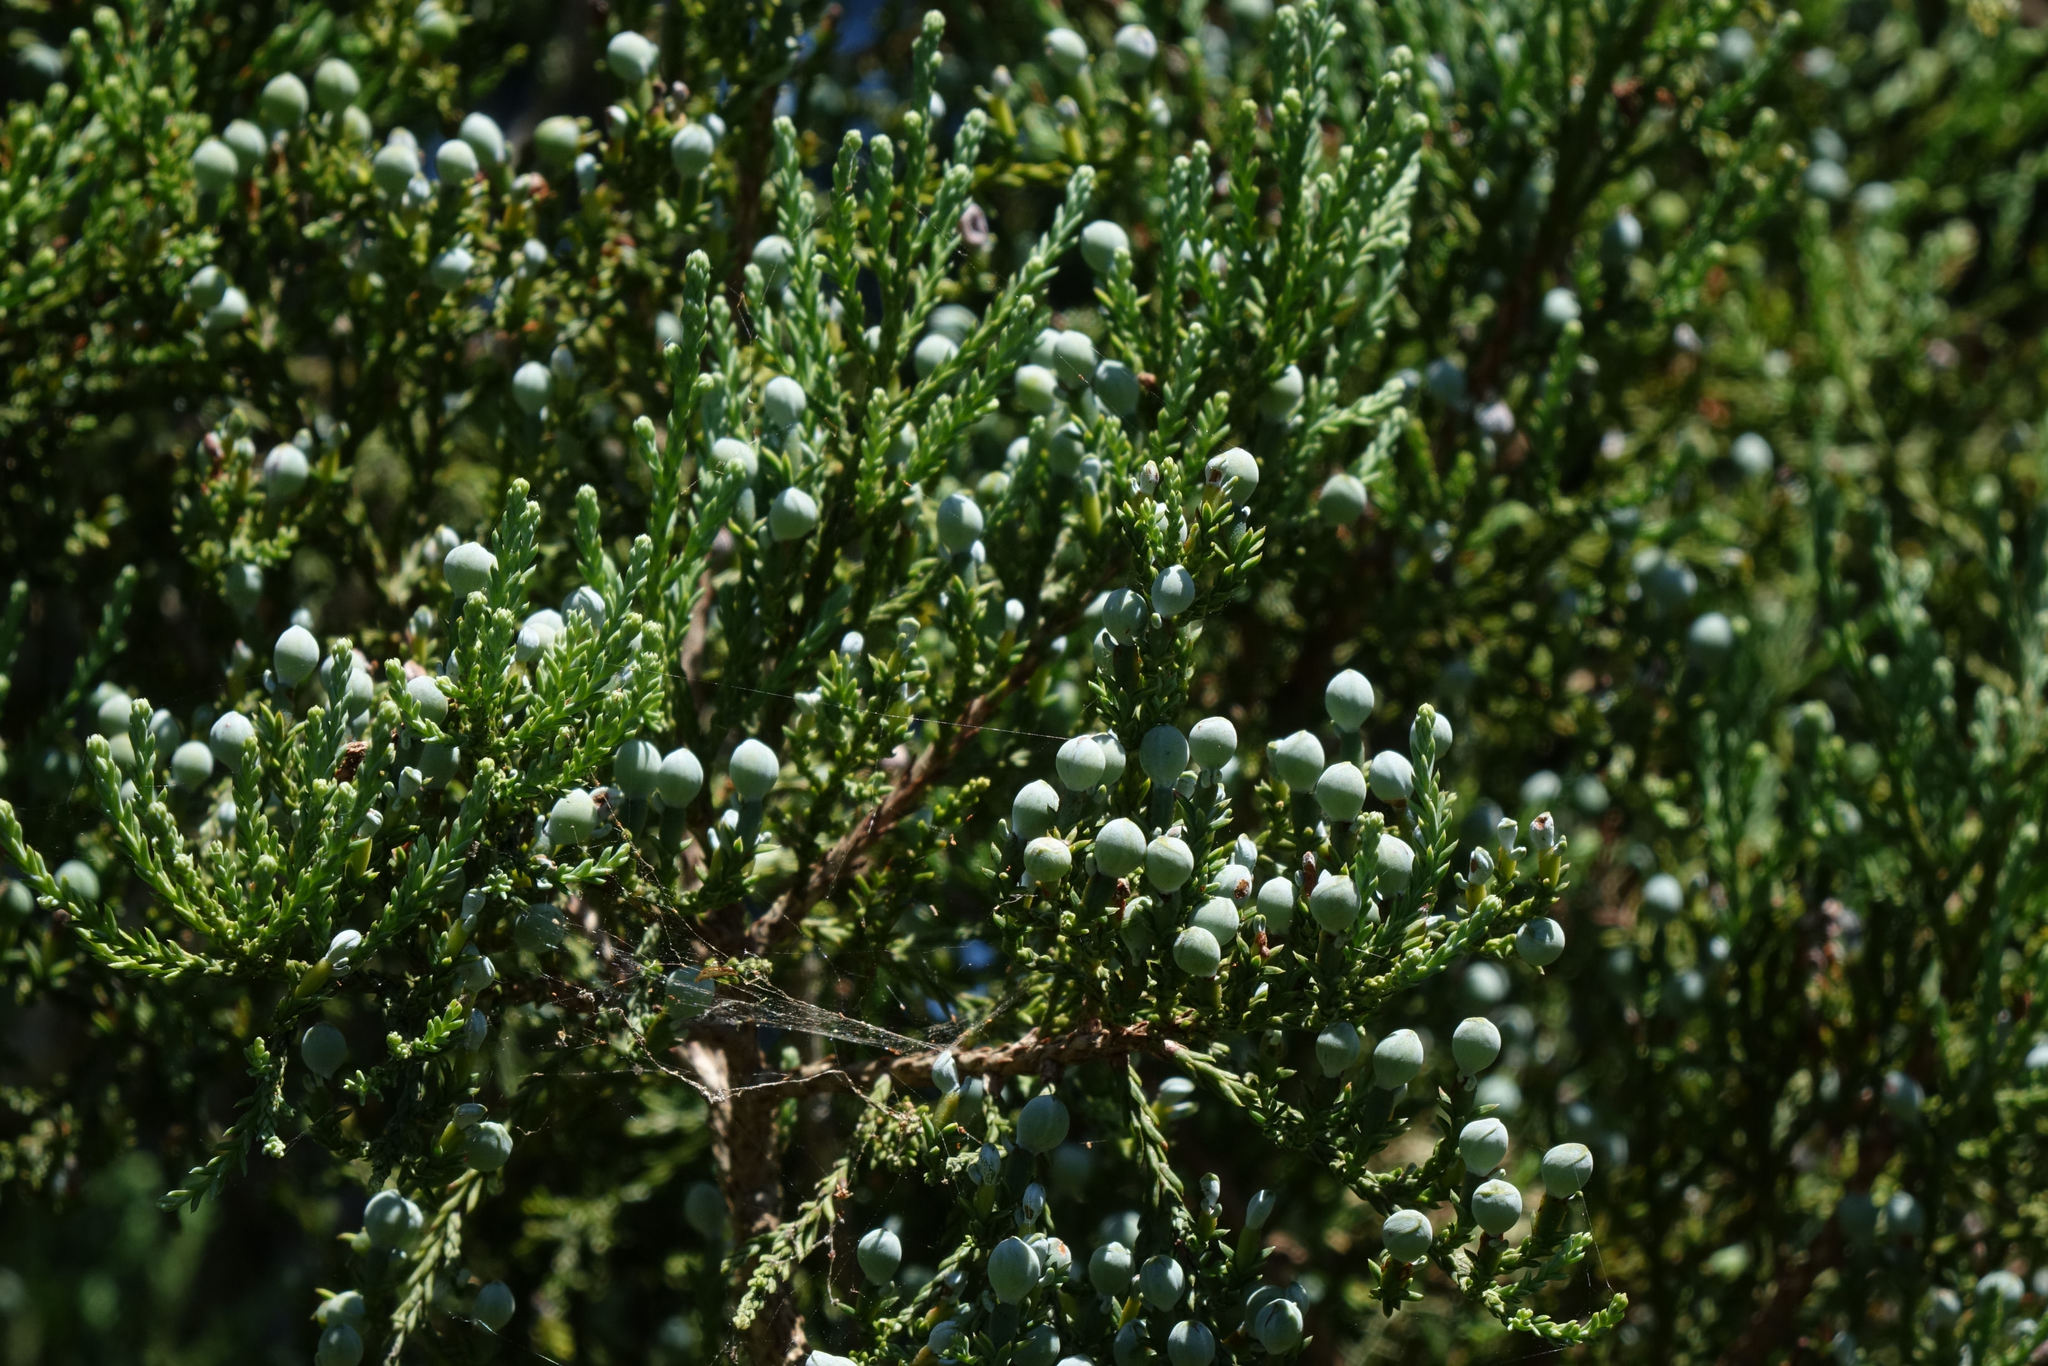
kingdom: Plantae
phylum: Tracheophyta
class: Pinopsida
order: Pinales
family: Podocarpaceae
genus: Dacrycarpus
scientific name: Dacrycarpus dacrydioides
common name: White pine
